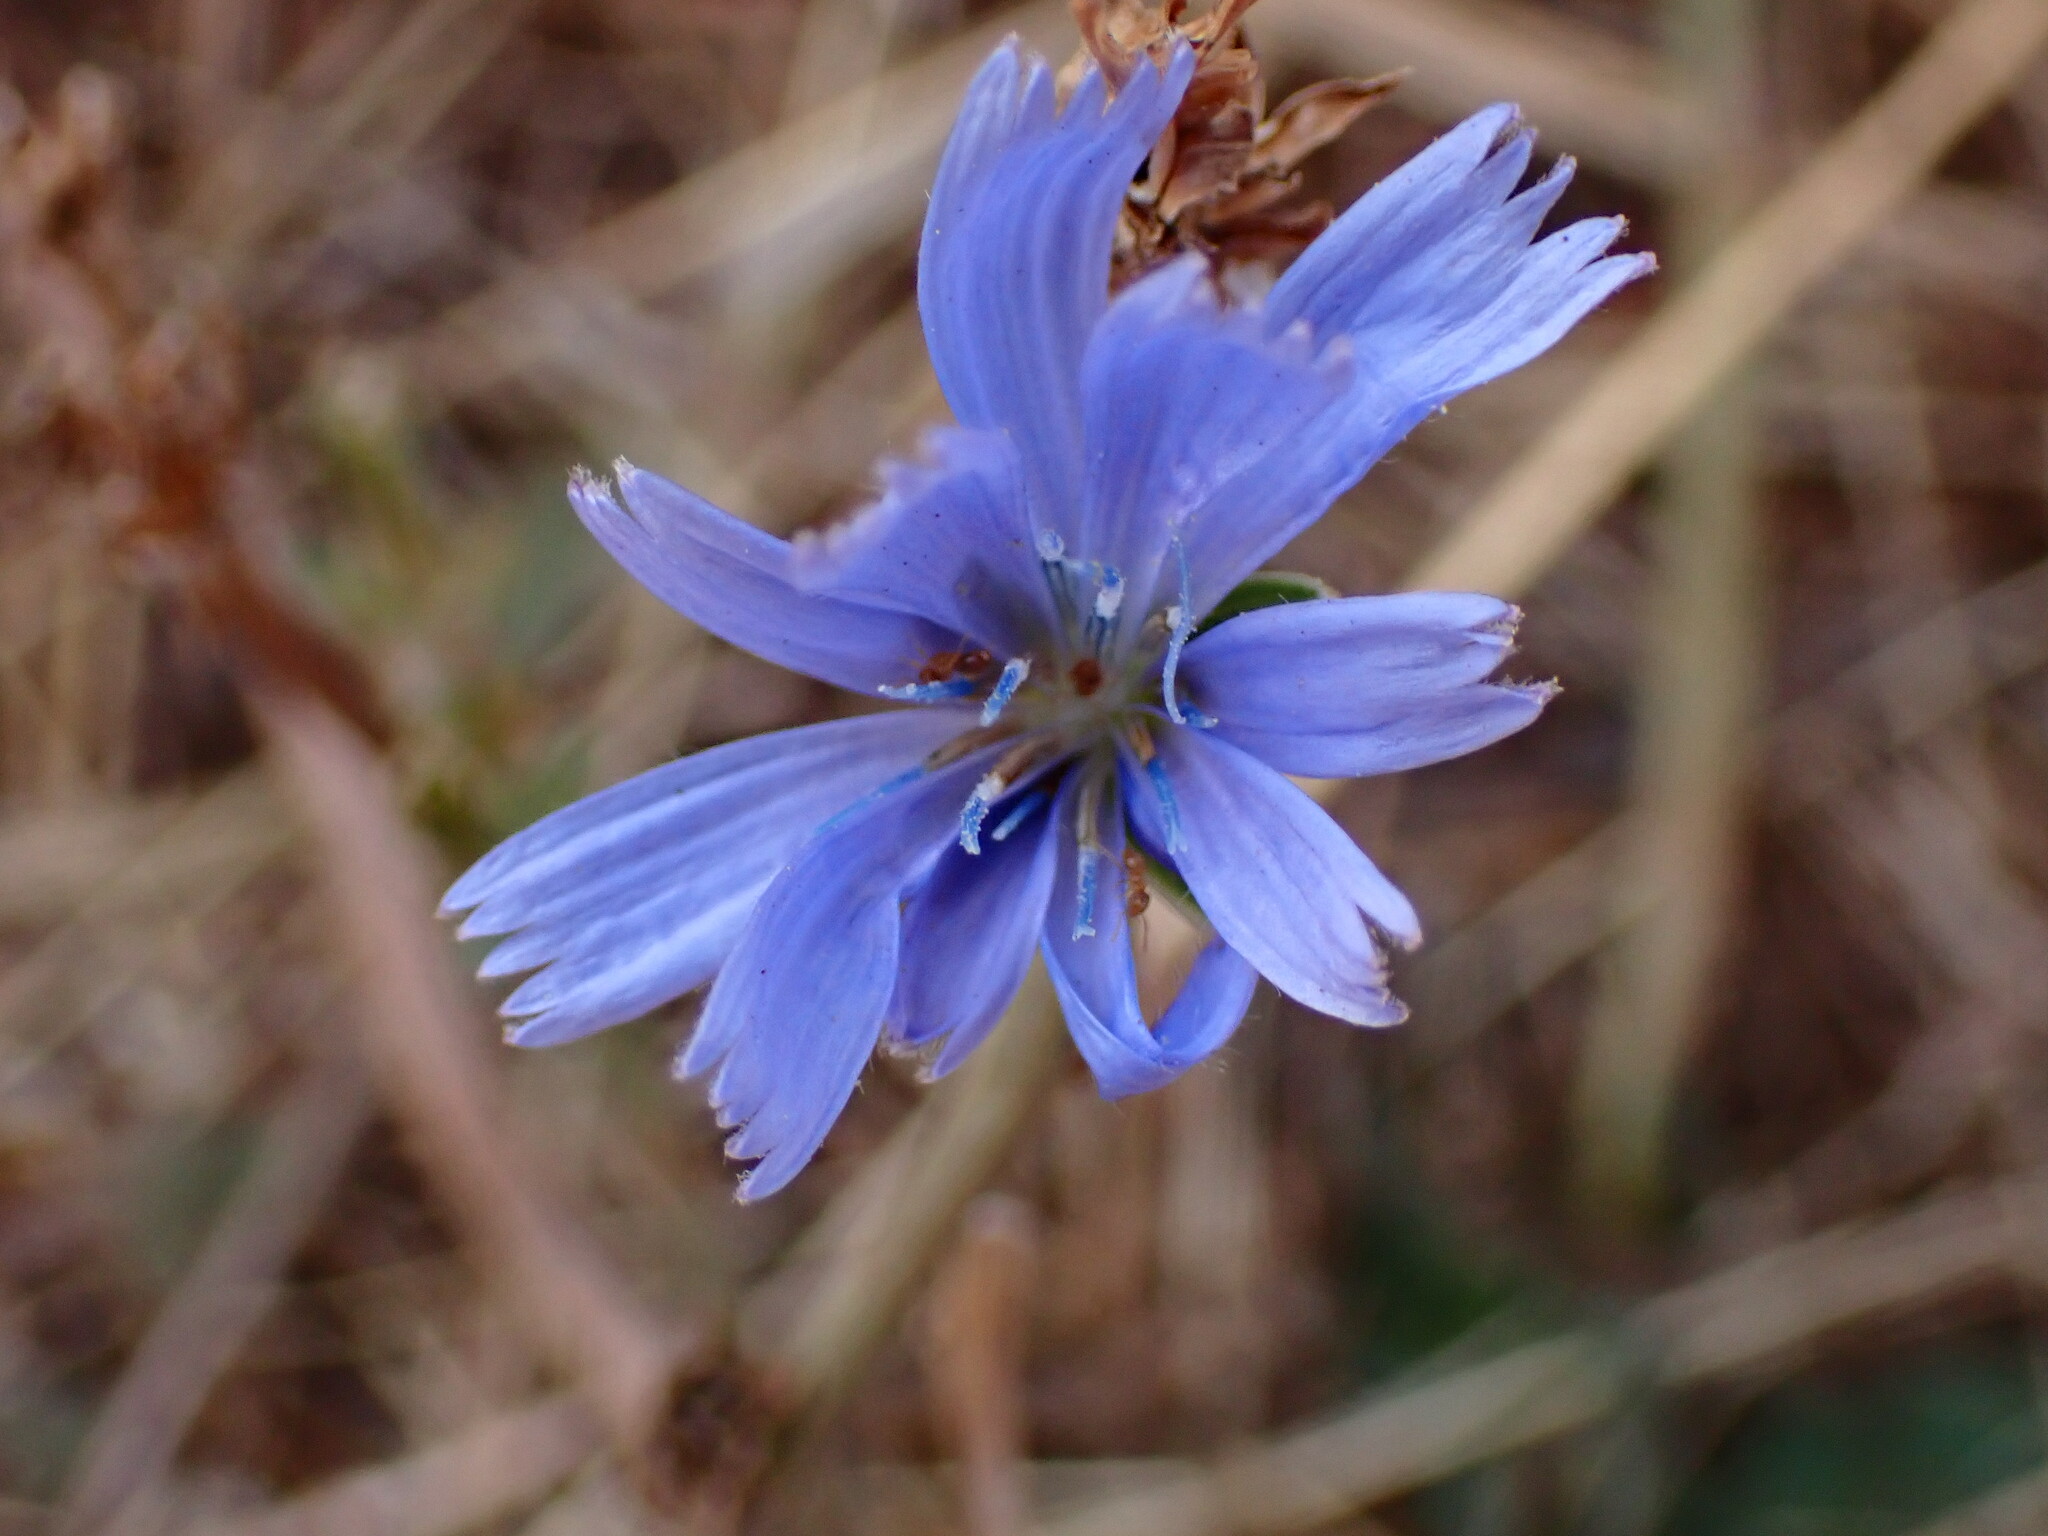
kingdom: Plantae
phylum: Tracheophyta
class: Magnoliopsida
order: Asterales
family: Asteraceae
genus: Cichorium
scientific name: Cichorium intybus
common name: Chicory
